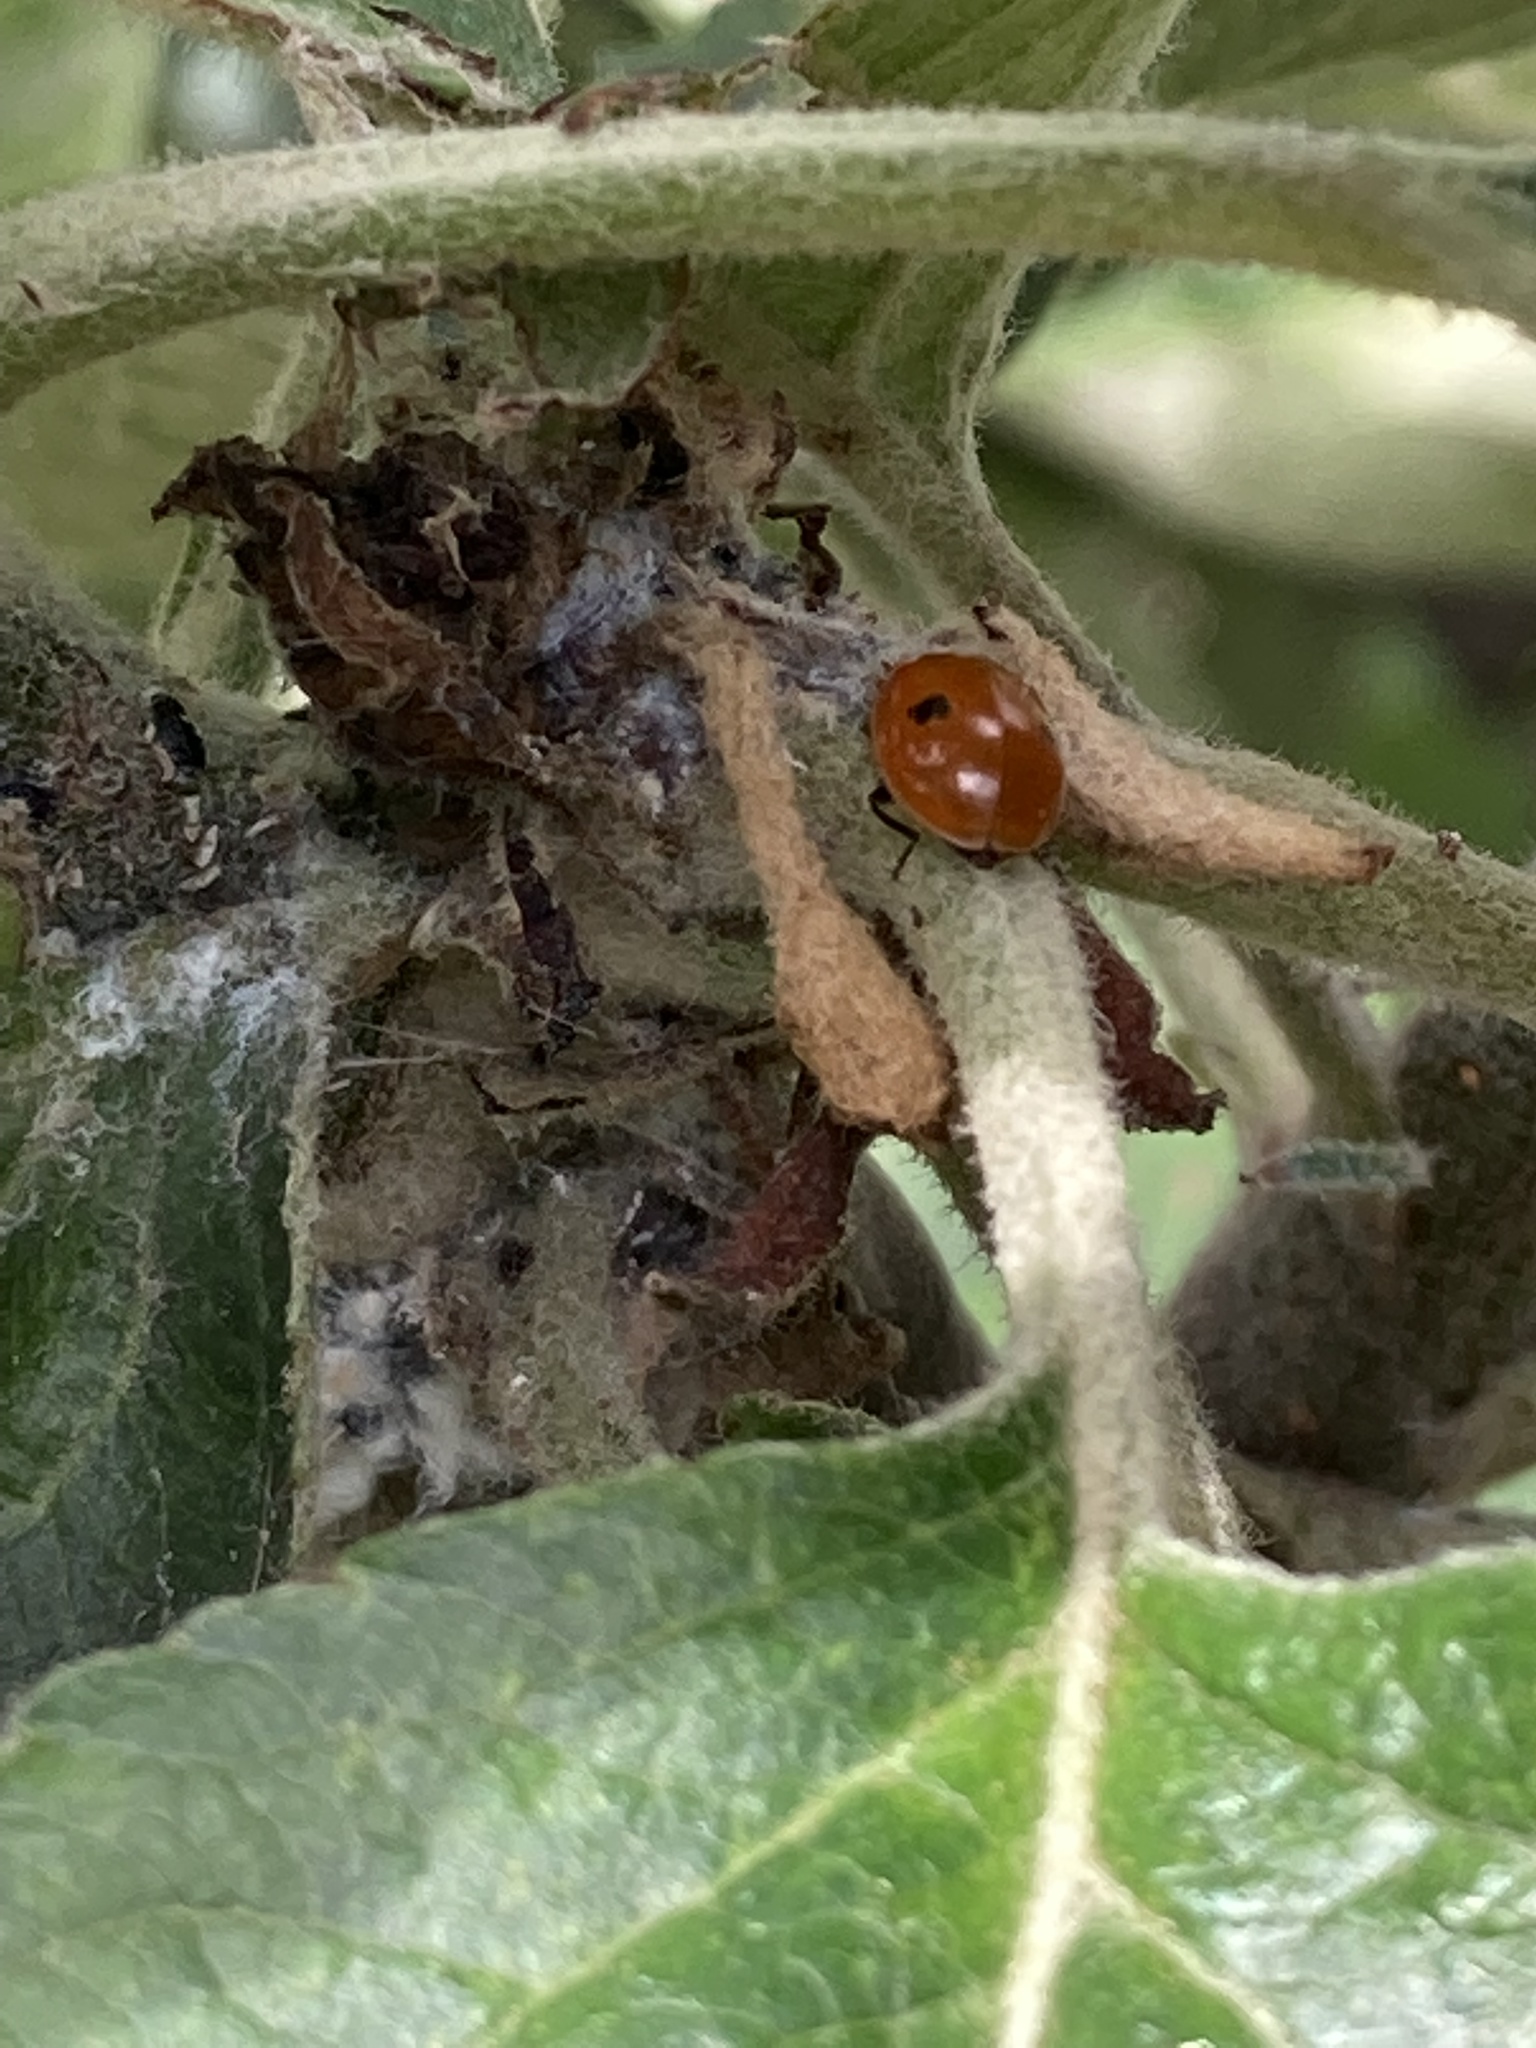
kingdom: Animalia
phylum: Arthropoda
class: Insecta
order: Coleoptera
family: Coccinellidae
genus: Adalia
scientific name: Adalia bipunctata
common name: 2-spot ladybird
